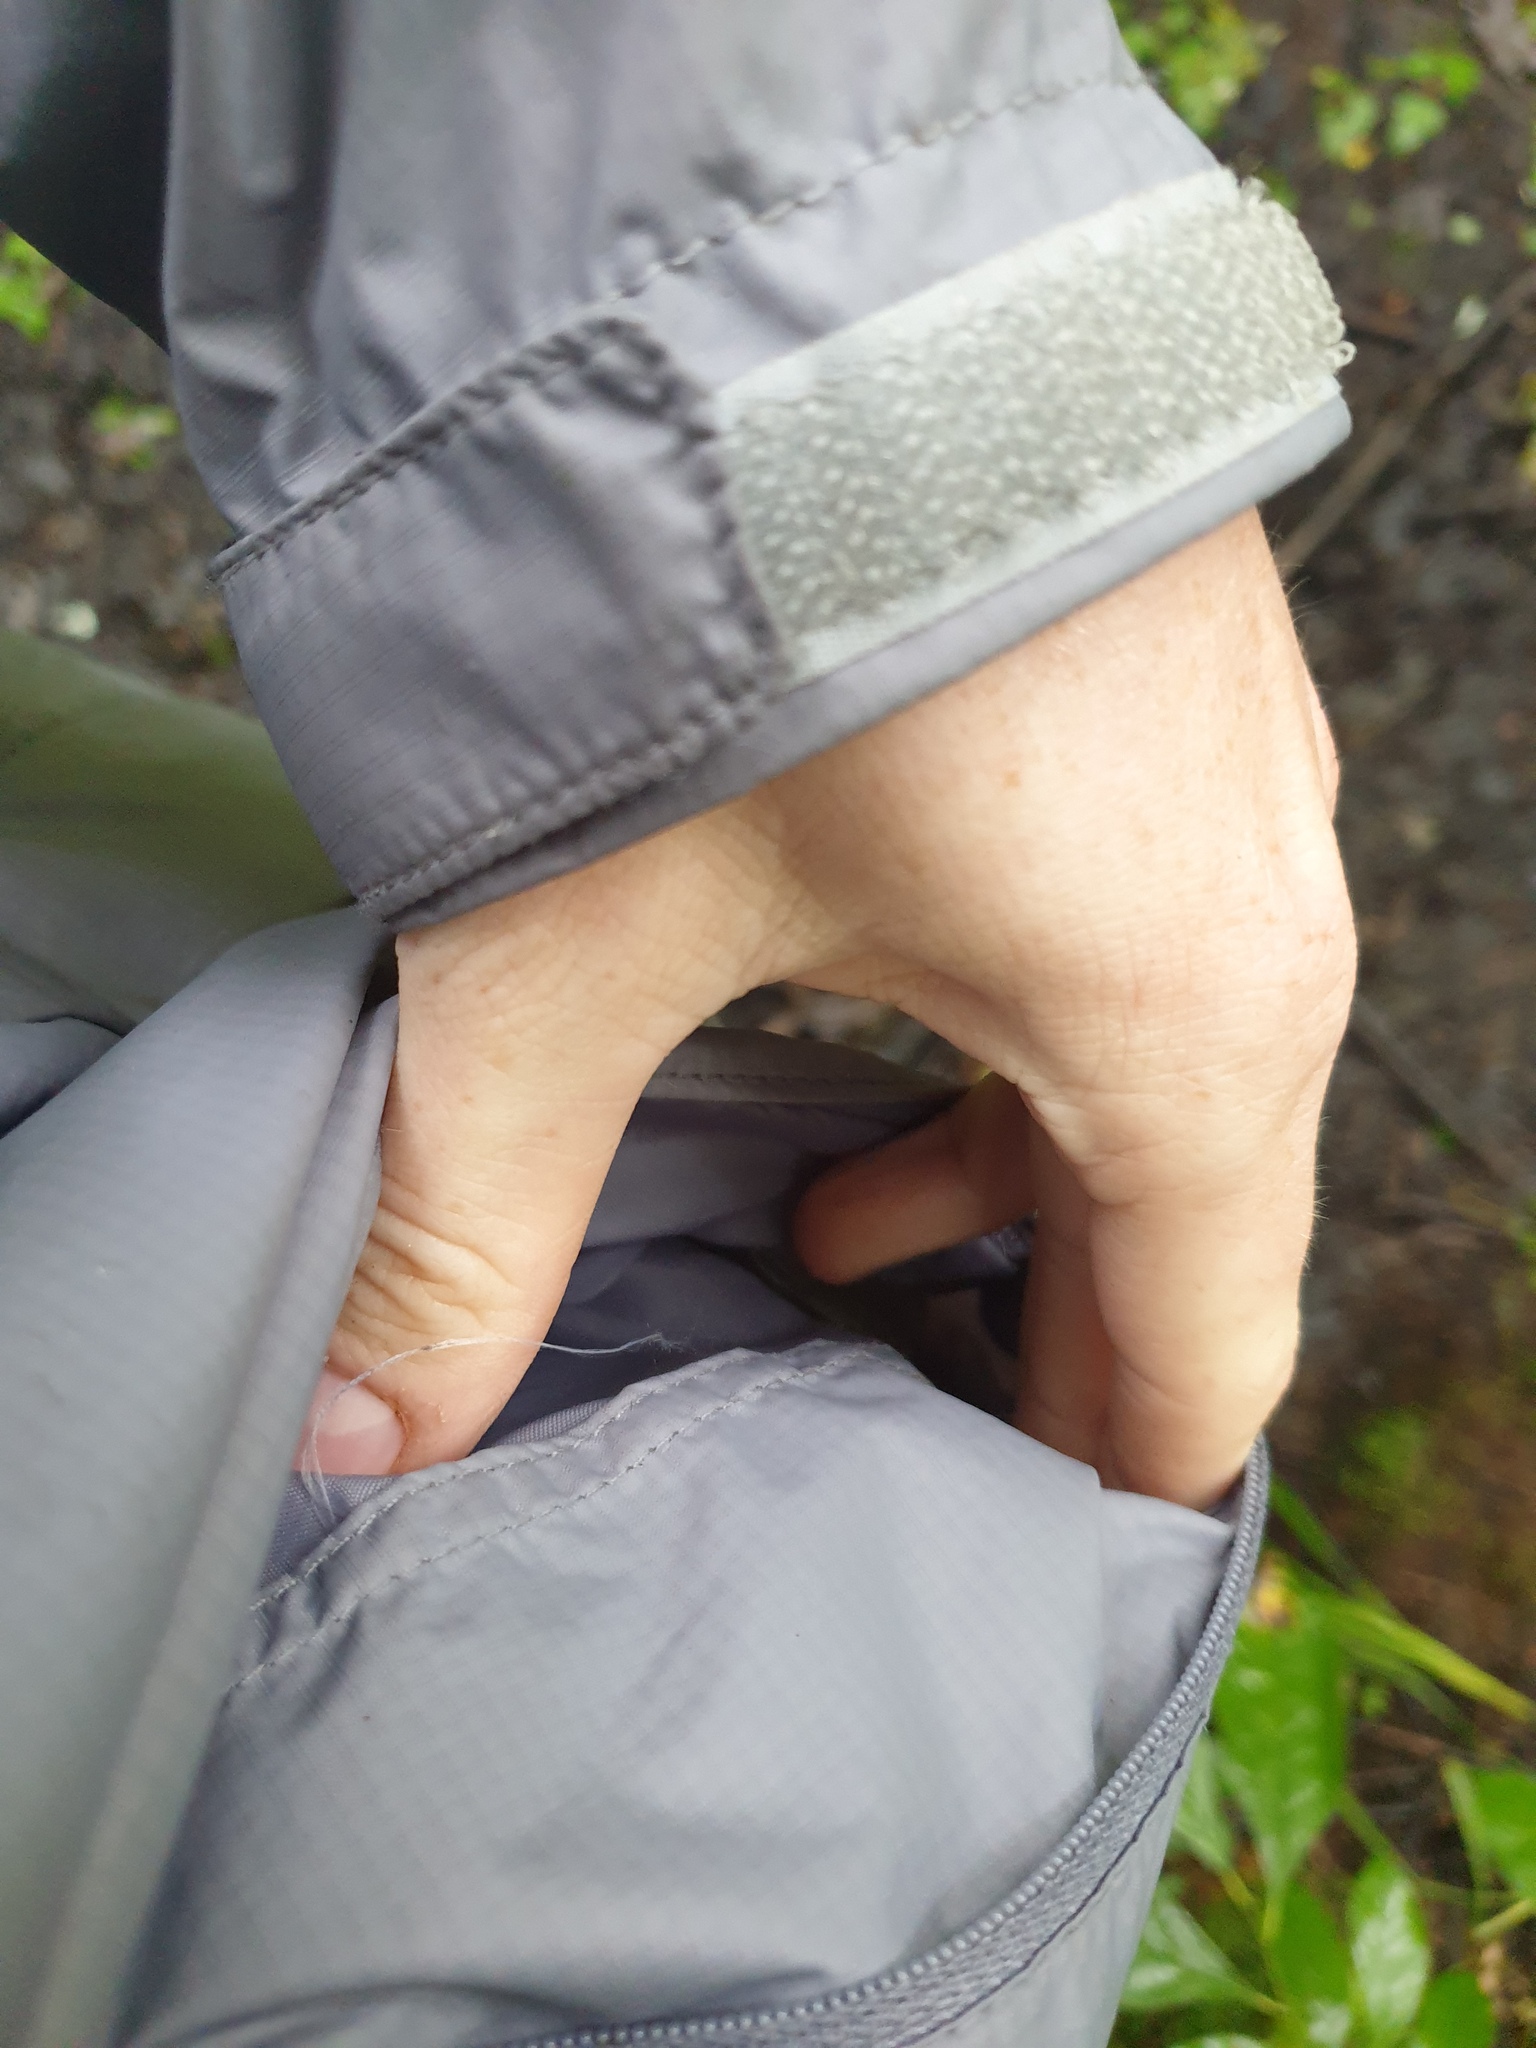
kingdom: Plantae
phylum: Tracheophyta
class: Magnoliopsida
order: Sapindales
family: Sapindaceae
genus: Acer
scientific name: Acer saccharum
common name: Sugar maple
